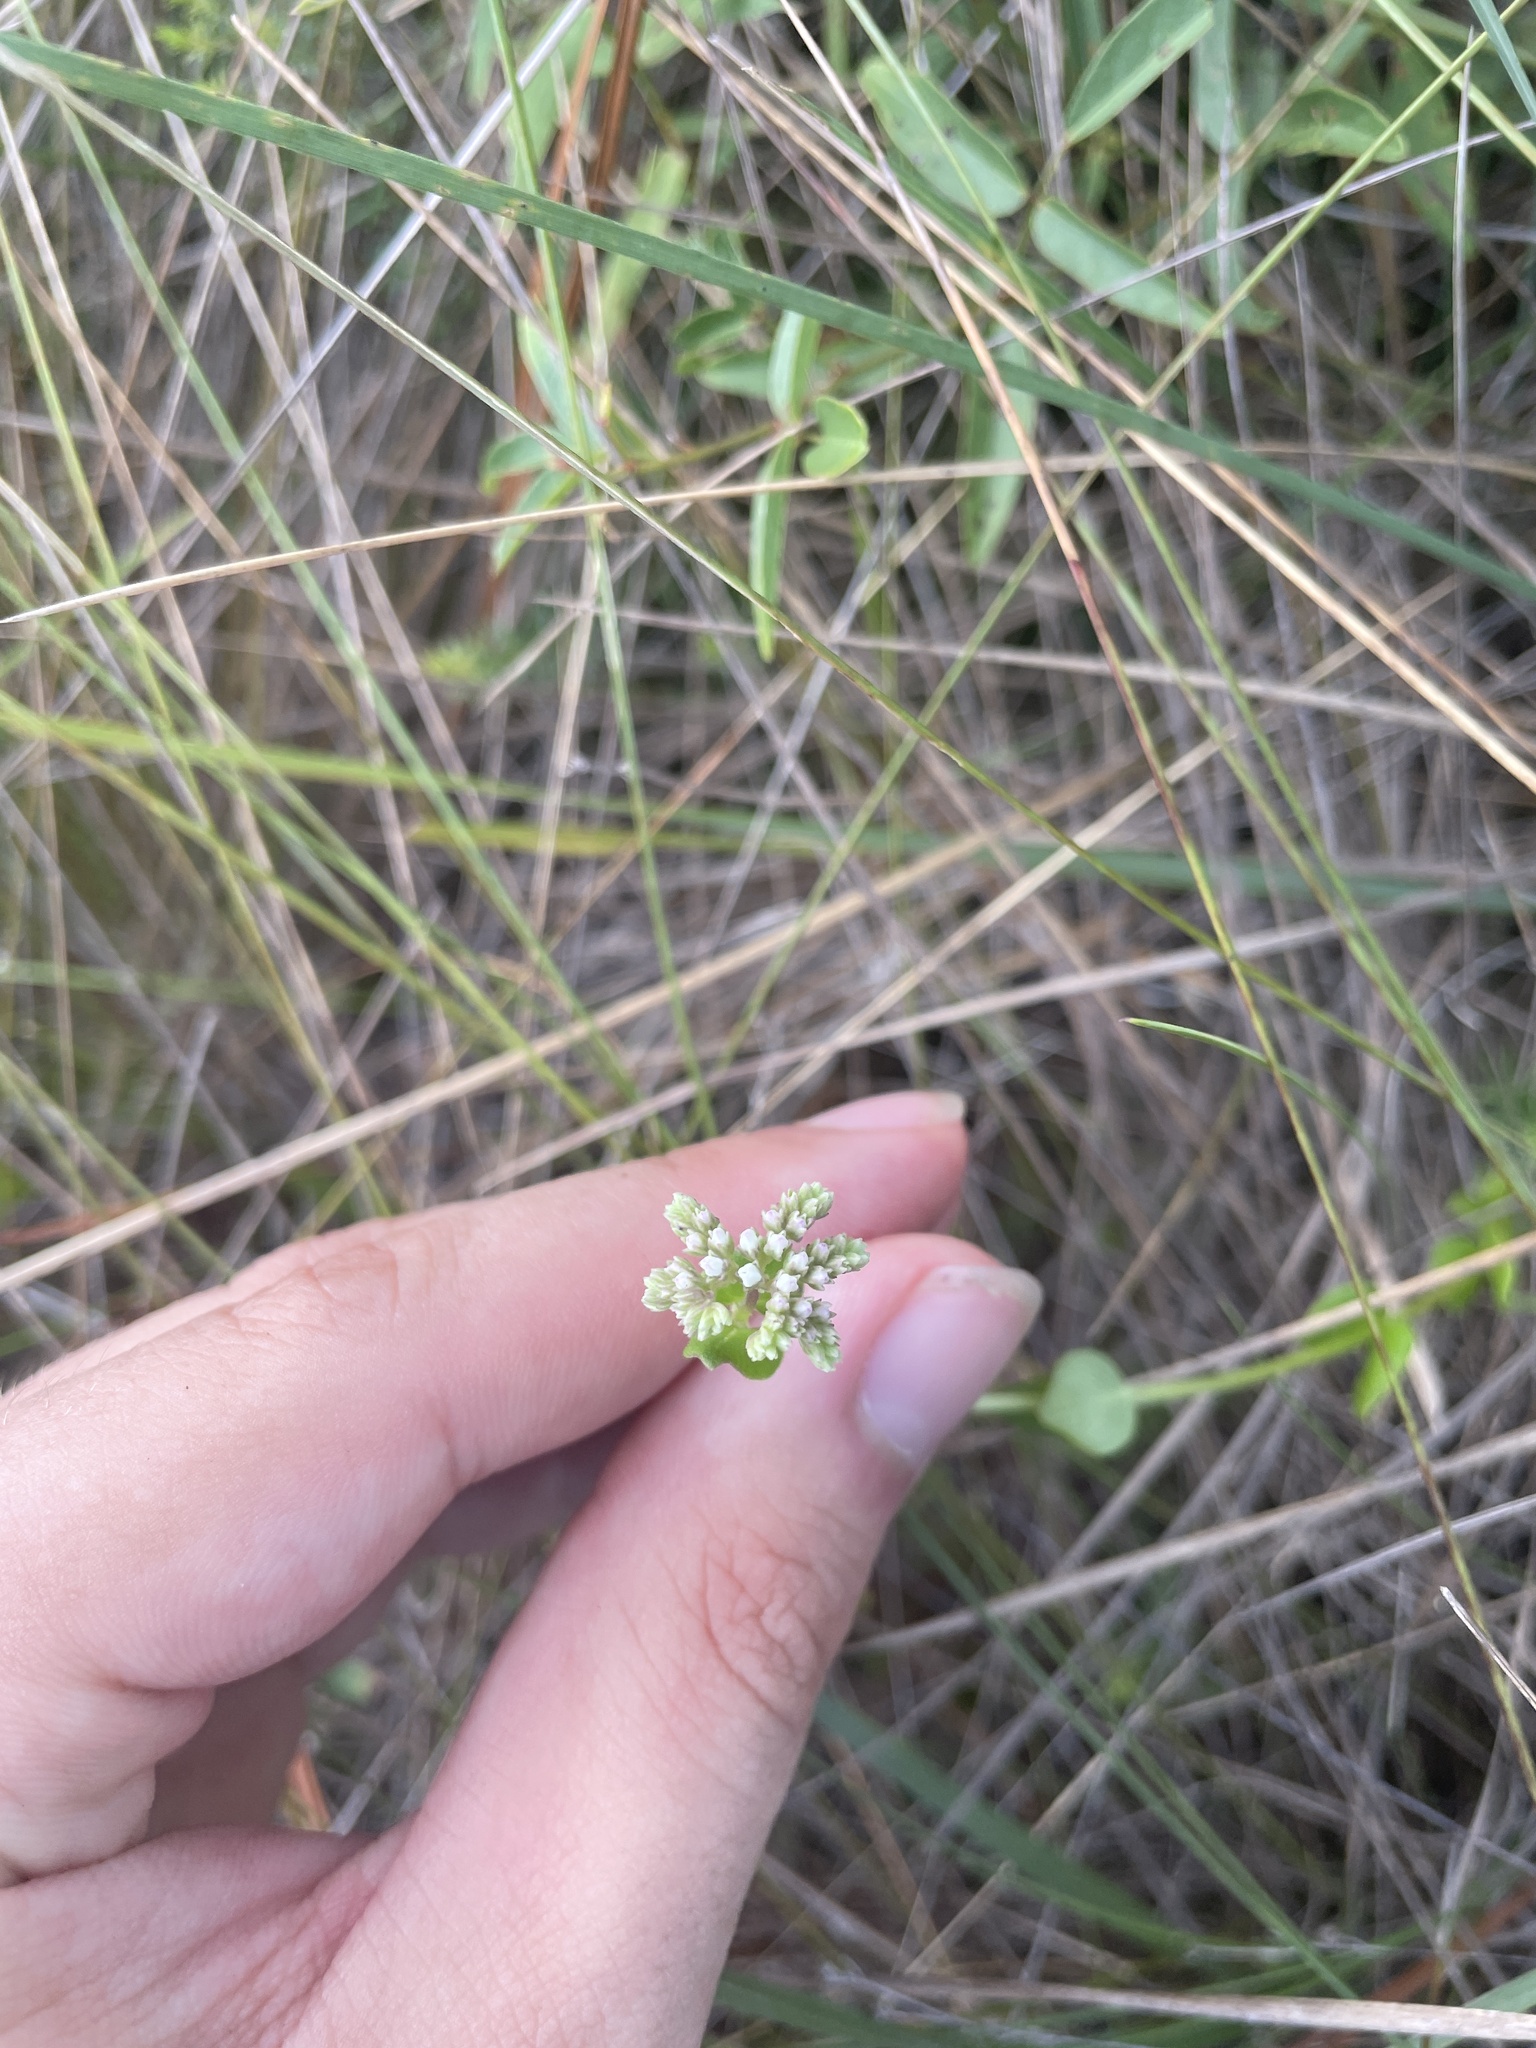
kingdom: Plantae
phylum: Tracheophyta
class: Magnoliopsida
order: Gentianales
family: Loganiaceae
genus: Mitreola
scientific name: Mitreola sessilifolia
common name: Swamp hornpod
